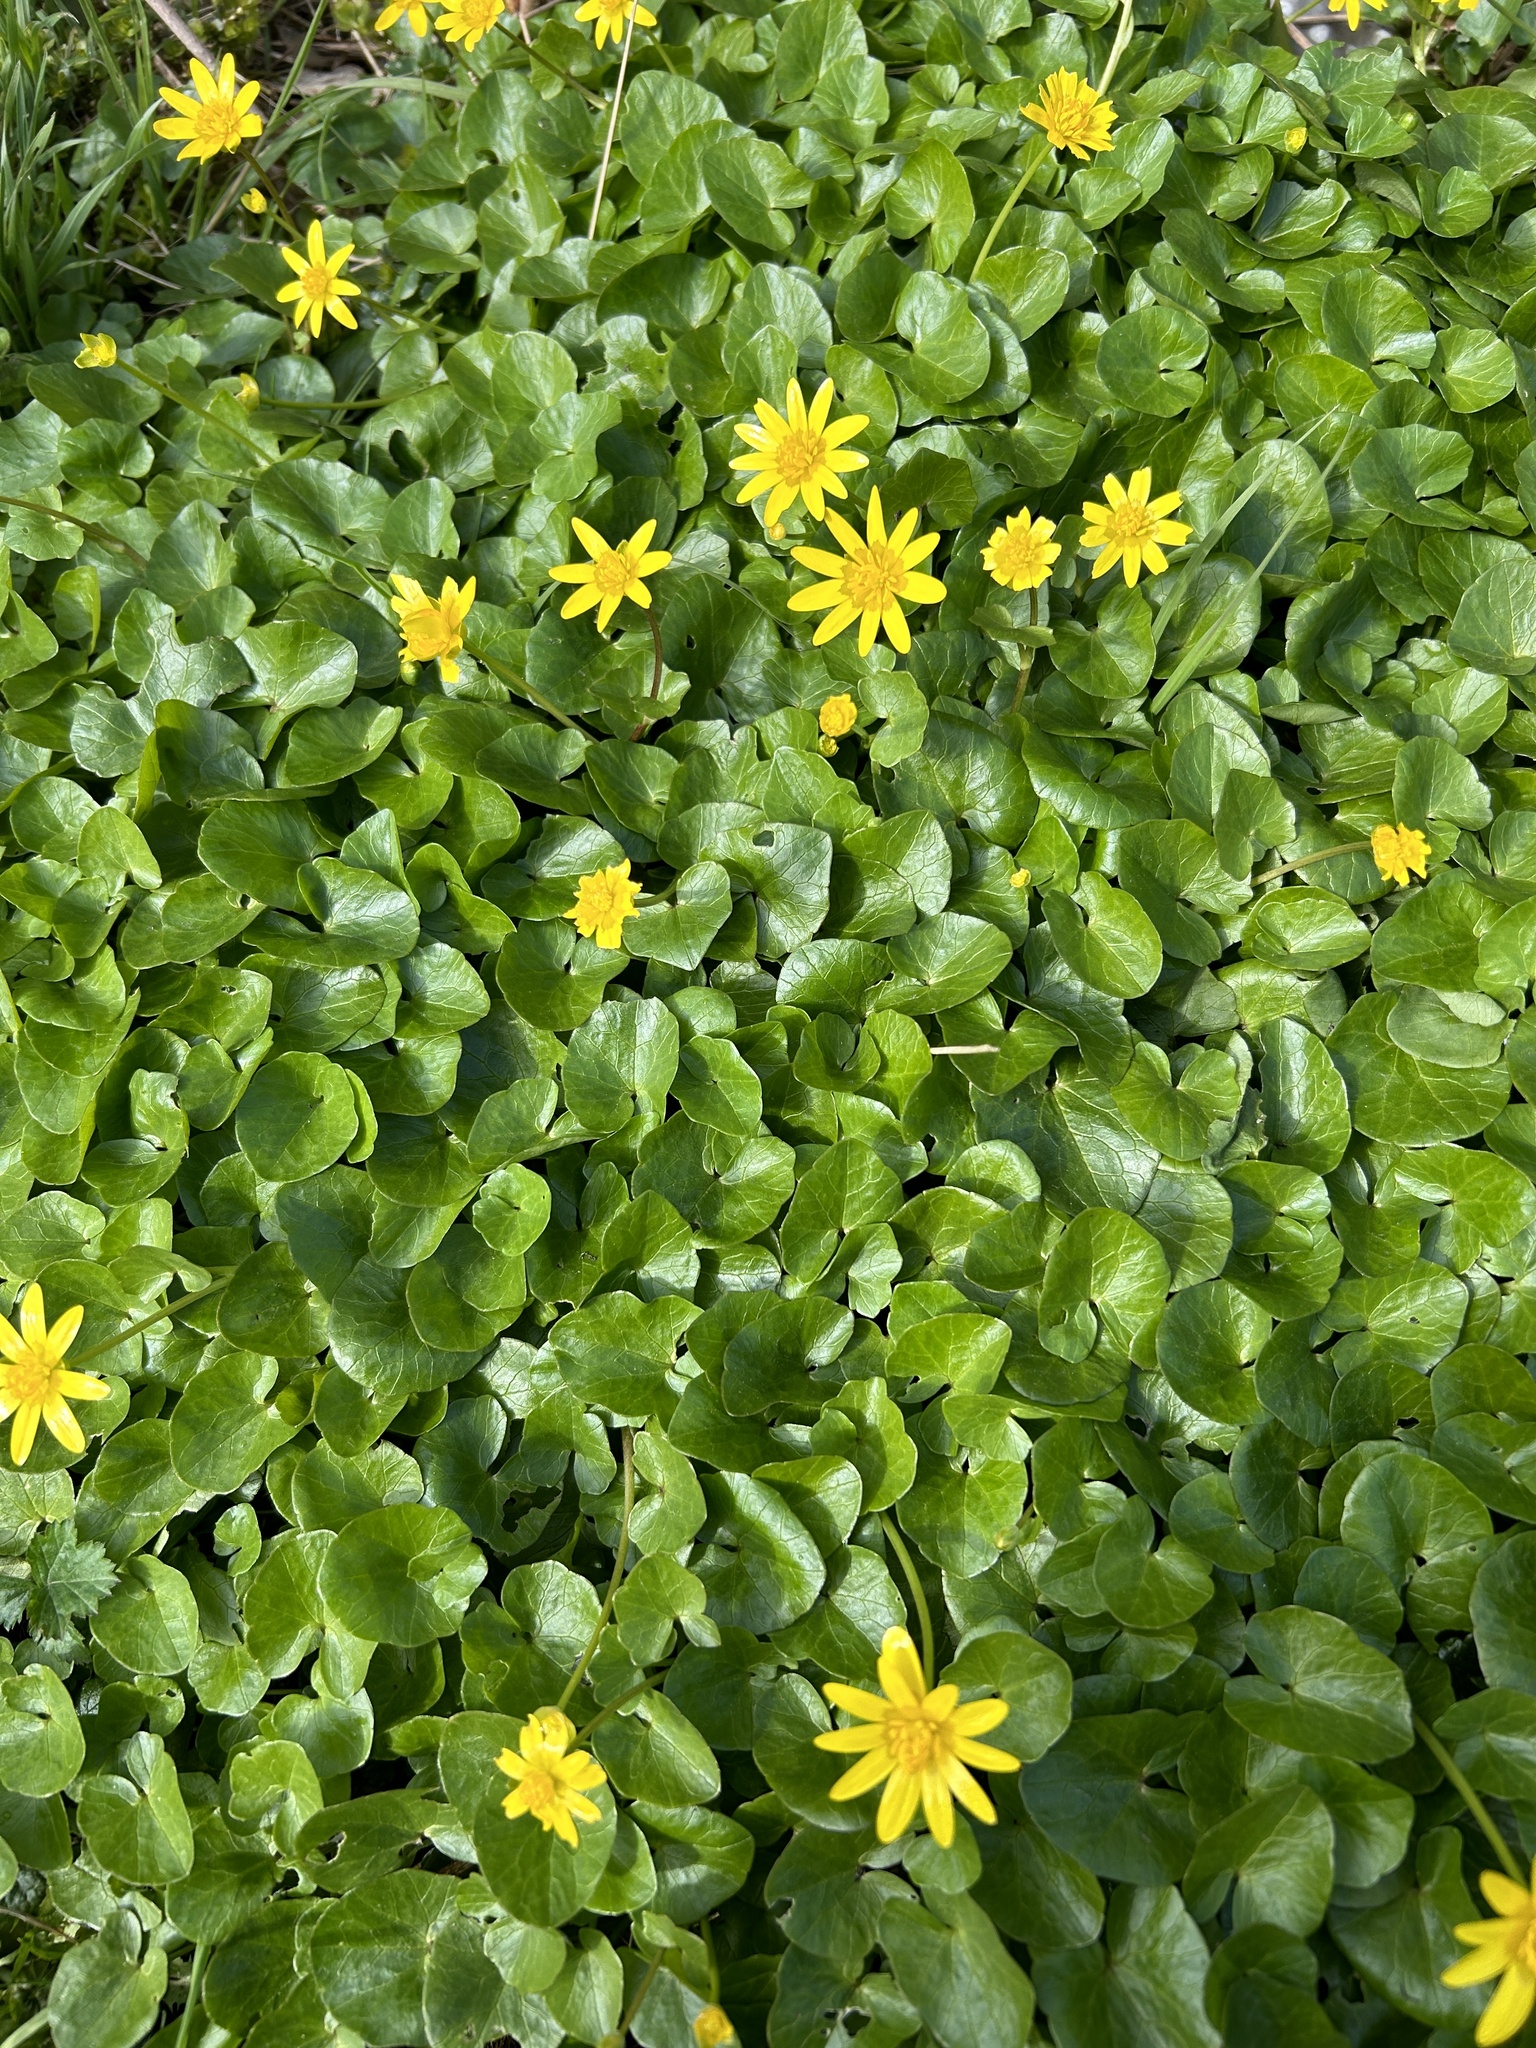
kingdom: Plantae
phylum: Tracheophyta
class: Magnoliopsida
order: Ranunculales
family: Ranunculaceae
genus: Ficaria
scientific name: Ficaria verna
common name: Lesser celandine
